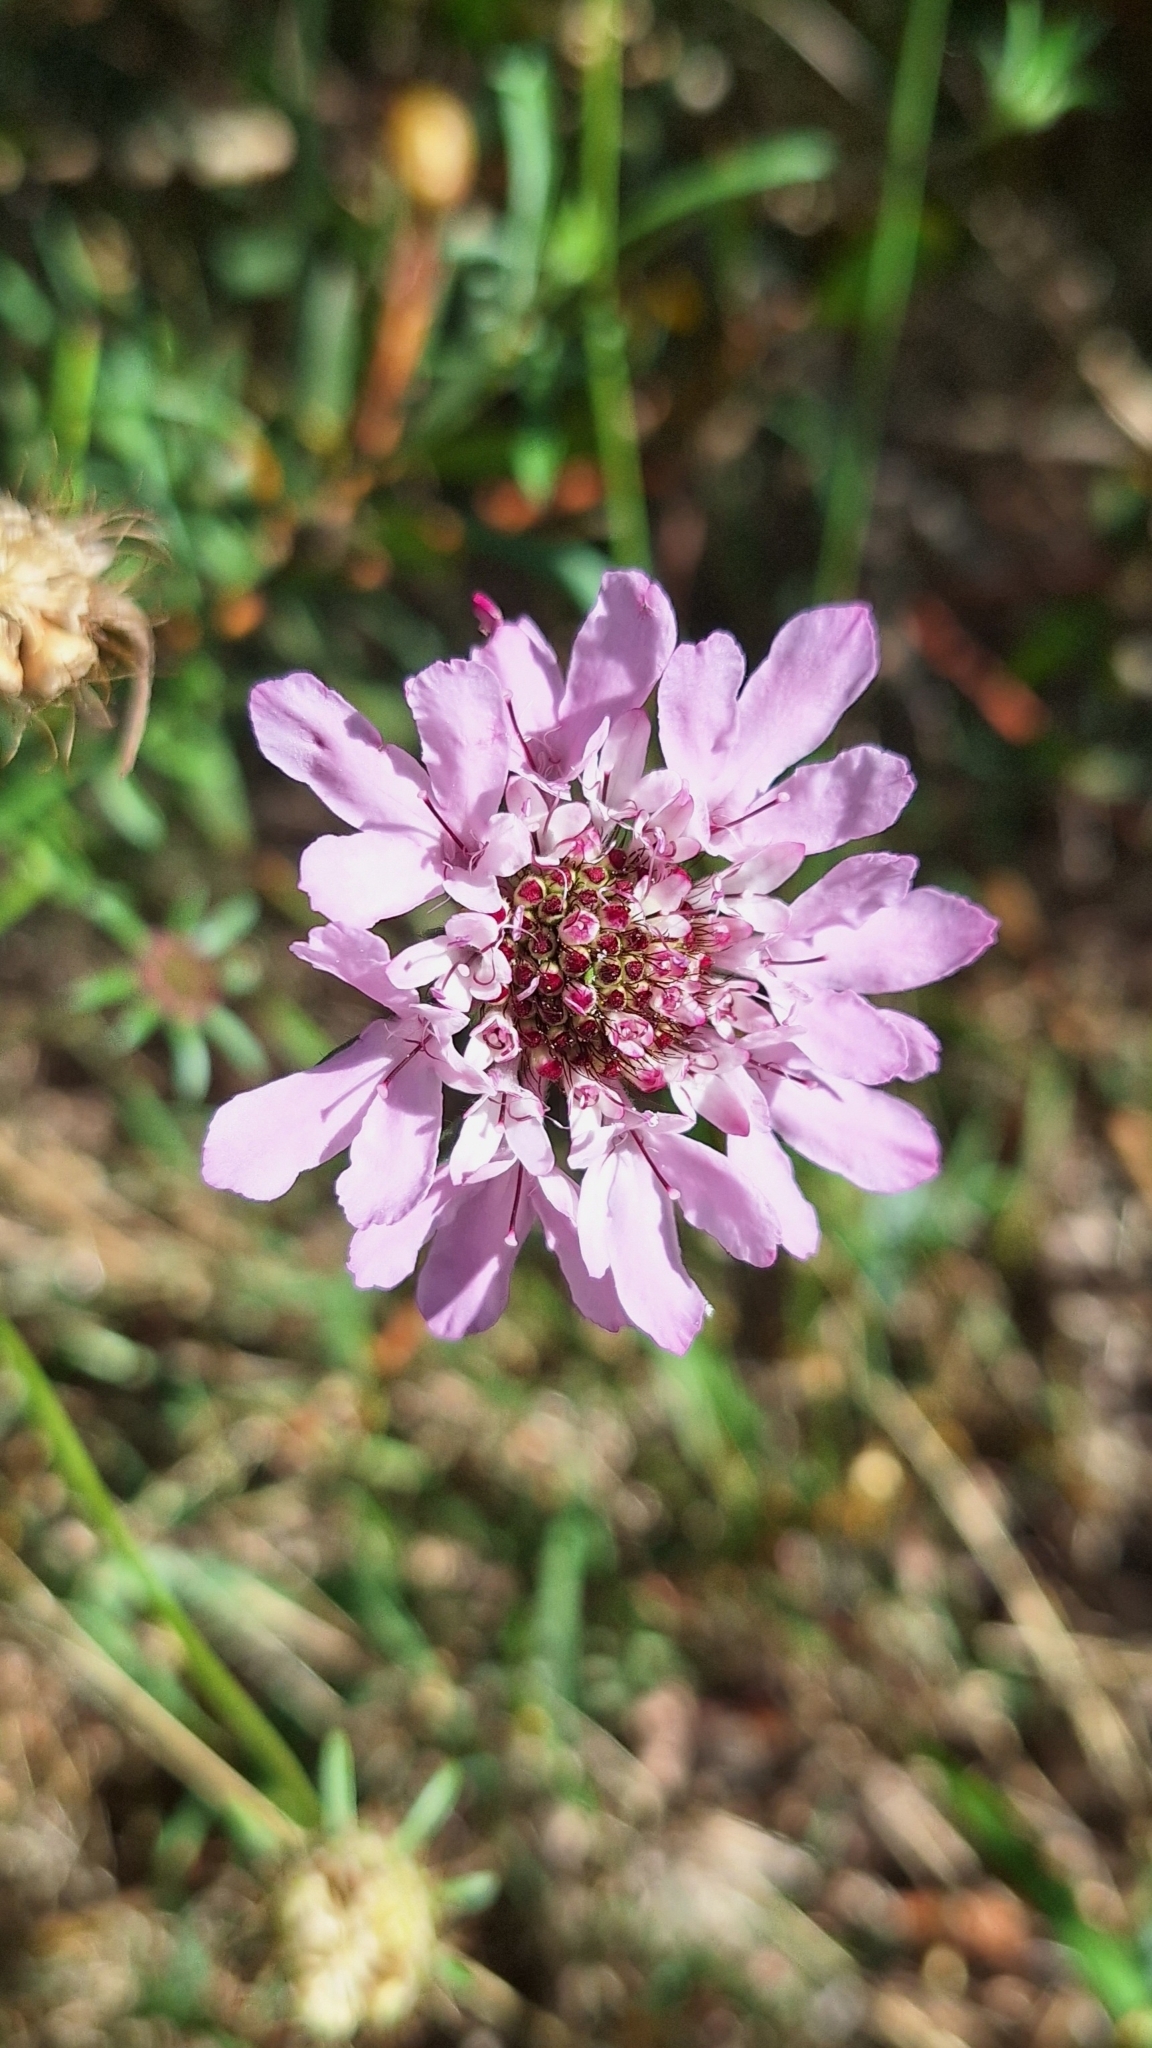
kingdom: Plantae
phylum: Tracheophyta
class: Magnoliopsida
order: Dipsacales
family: Caprifoliaceae
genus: Sixalix
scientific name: Sixalix atropurpurea
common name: Sweet scabious
